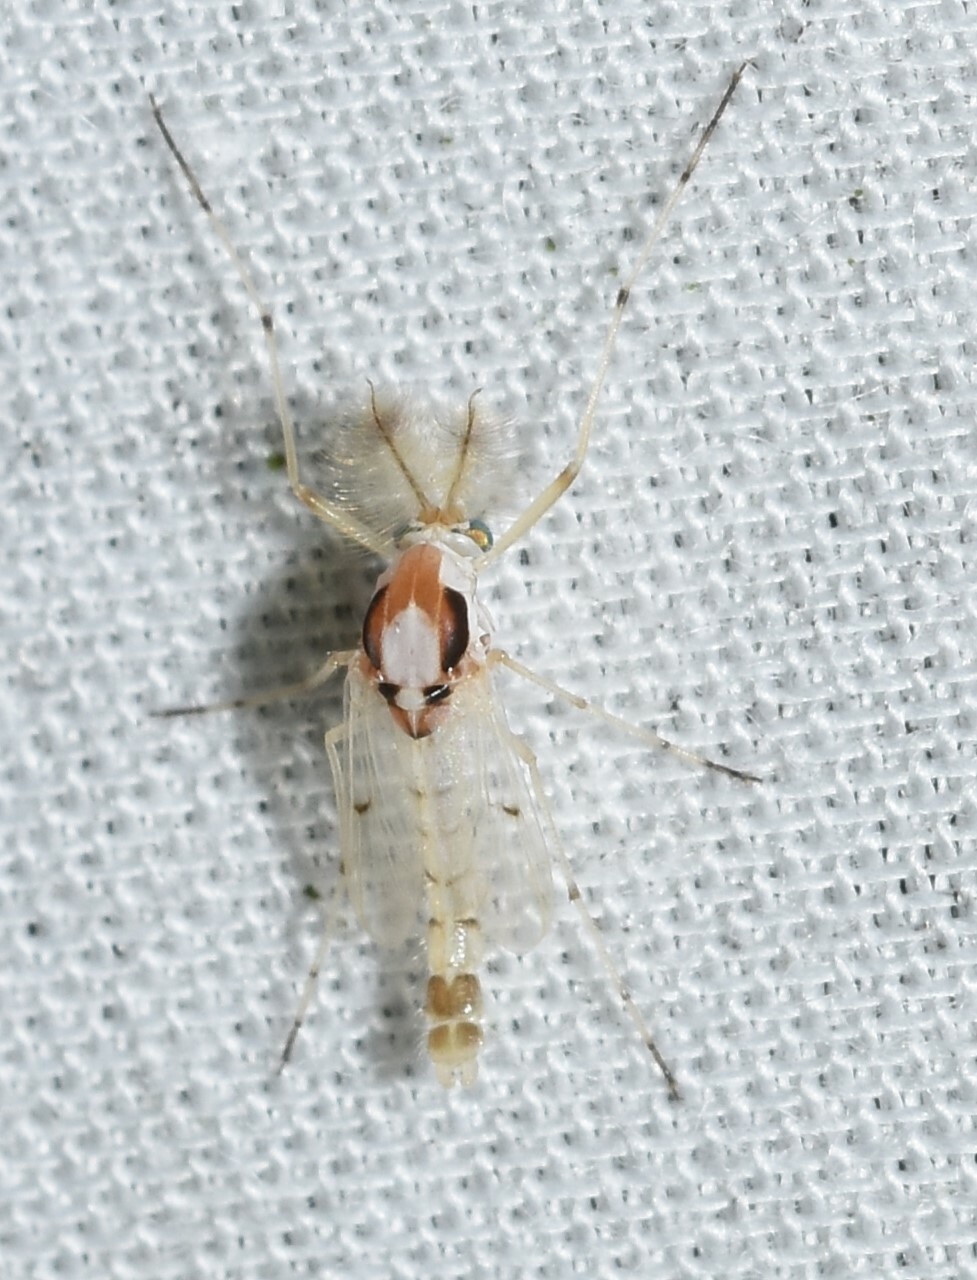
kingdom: Animalia
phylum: Arthropoda
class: Insecta
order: Diptera
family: Chironomidae
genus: Coelotanypus
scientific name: Coelotanypus concinnus
